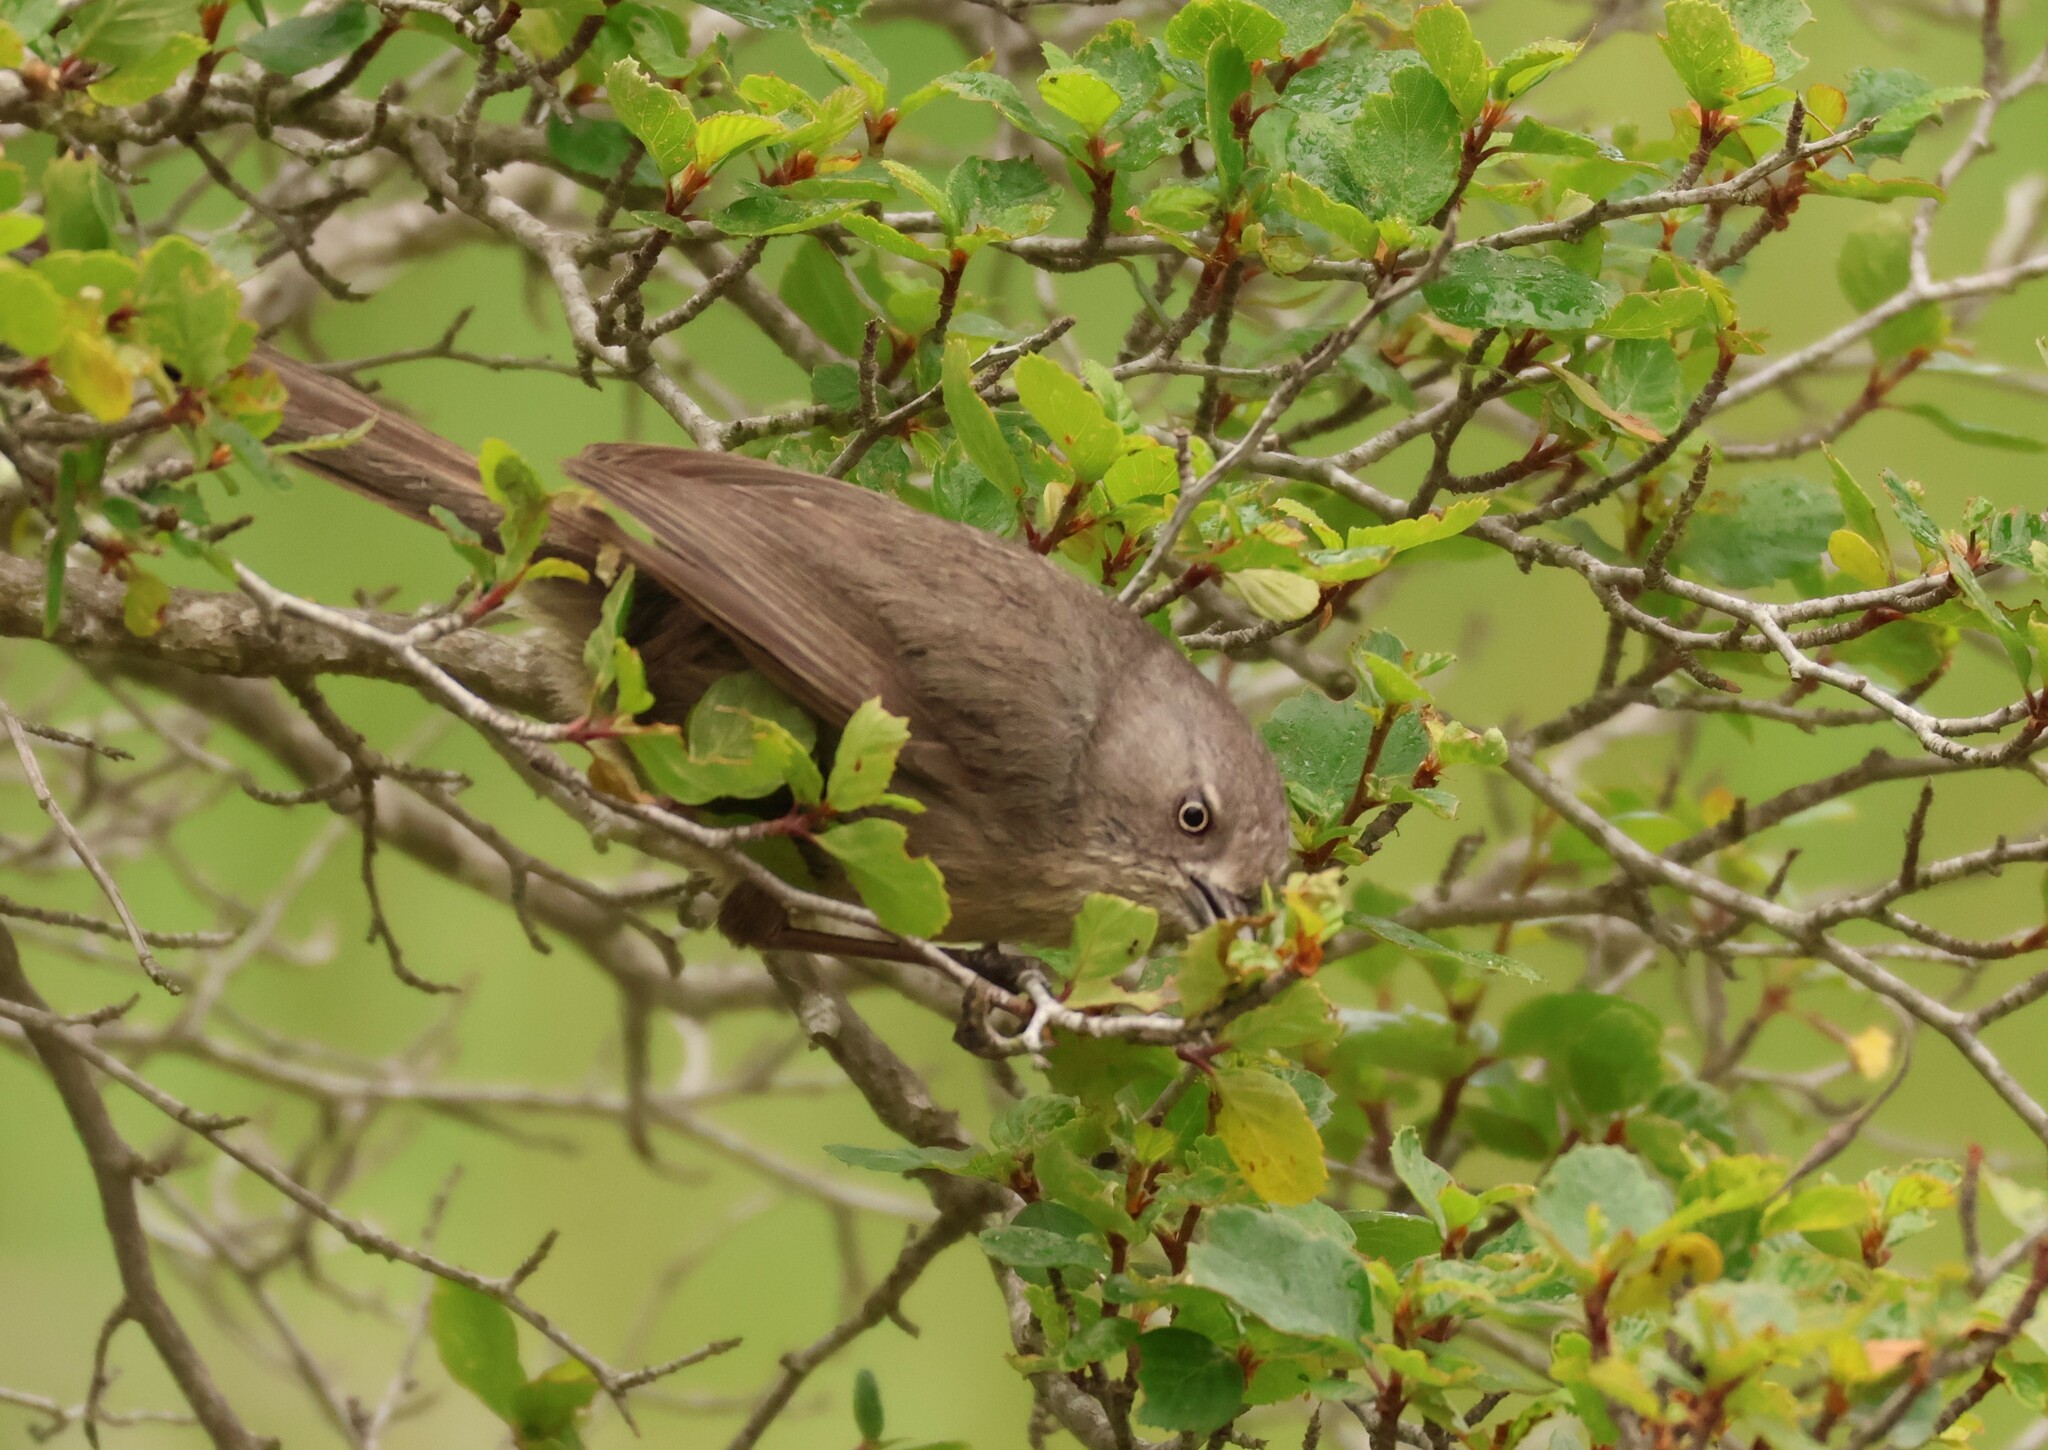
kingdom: Animalia
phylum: Chordata
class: Aves
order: Passeriformes
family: Sylviidae
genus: Chamaea
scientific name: Chamaea fasciata
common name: Wrentit
